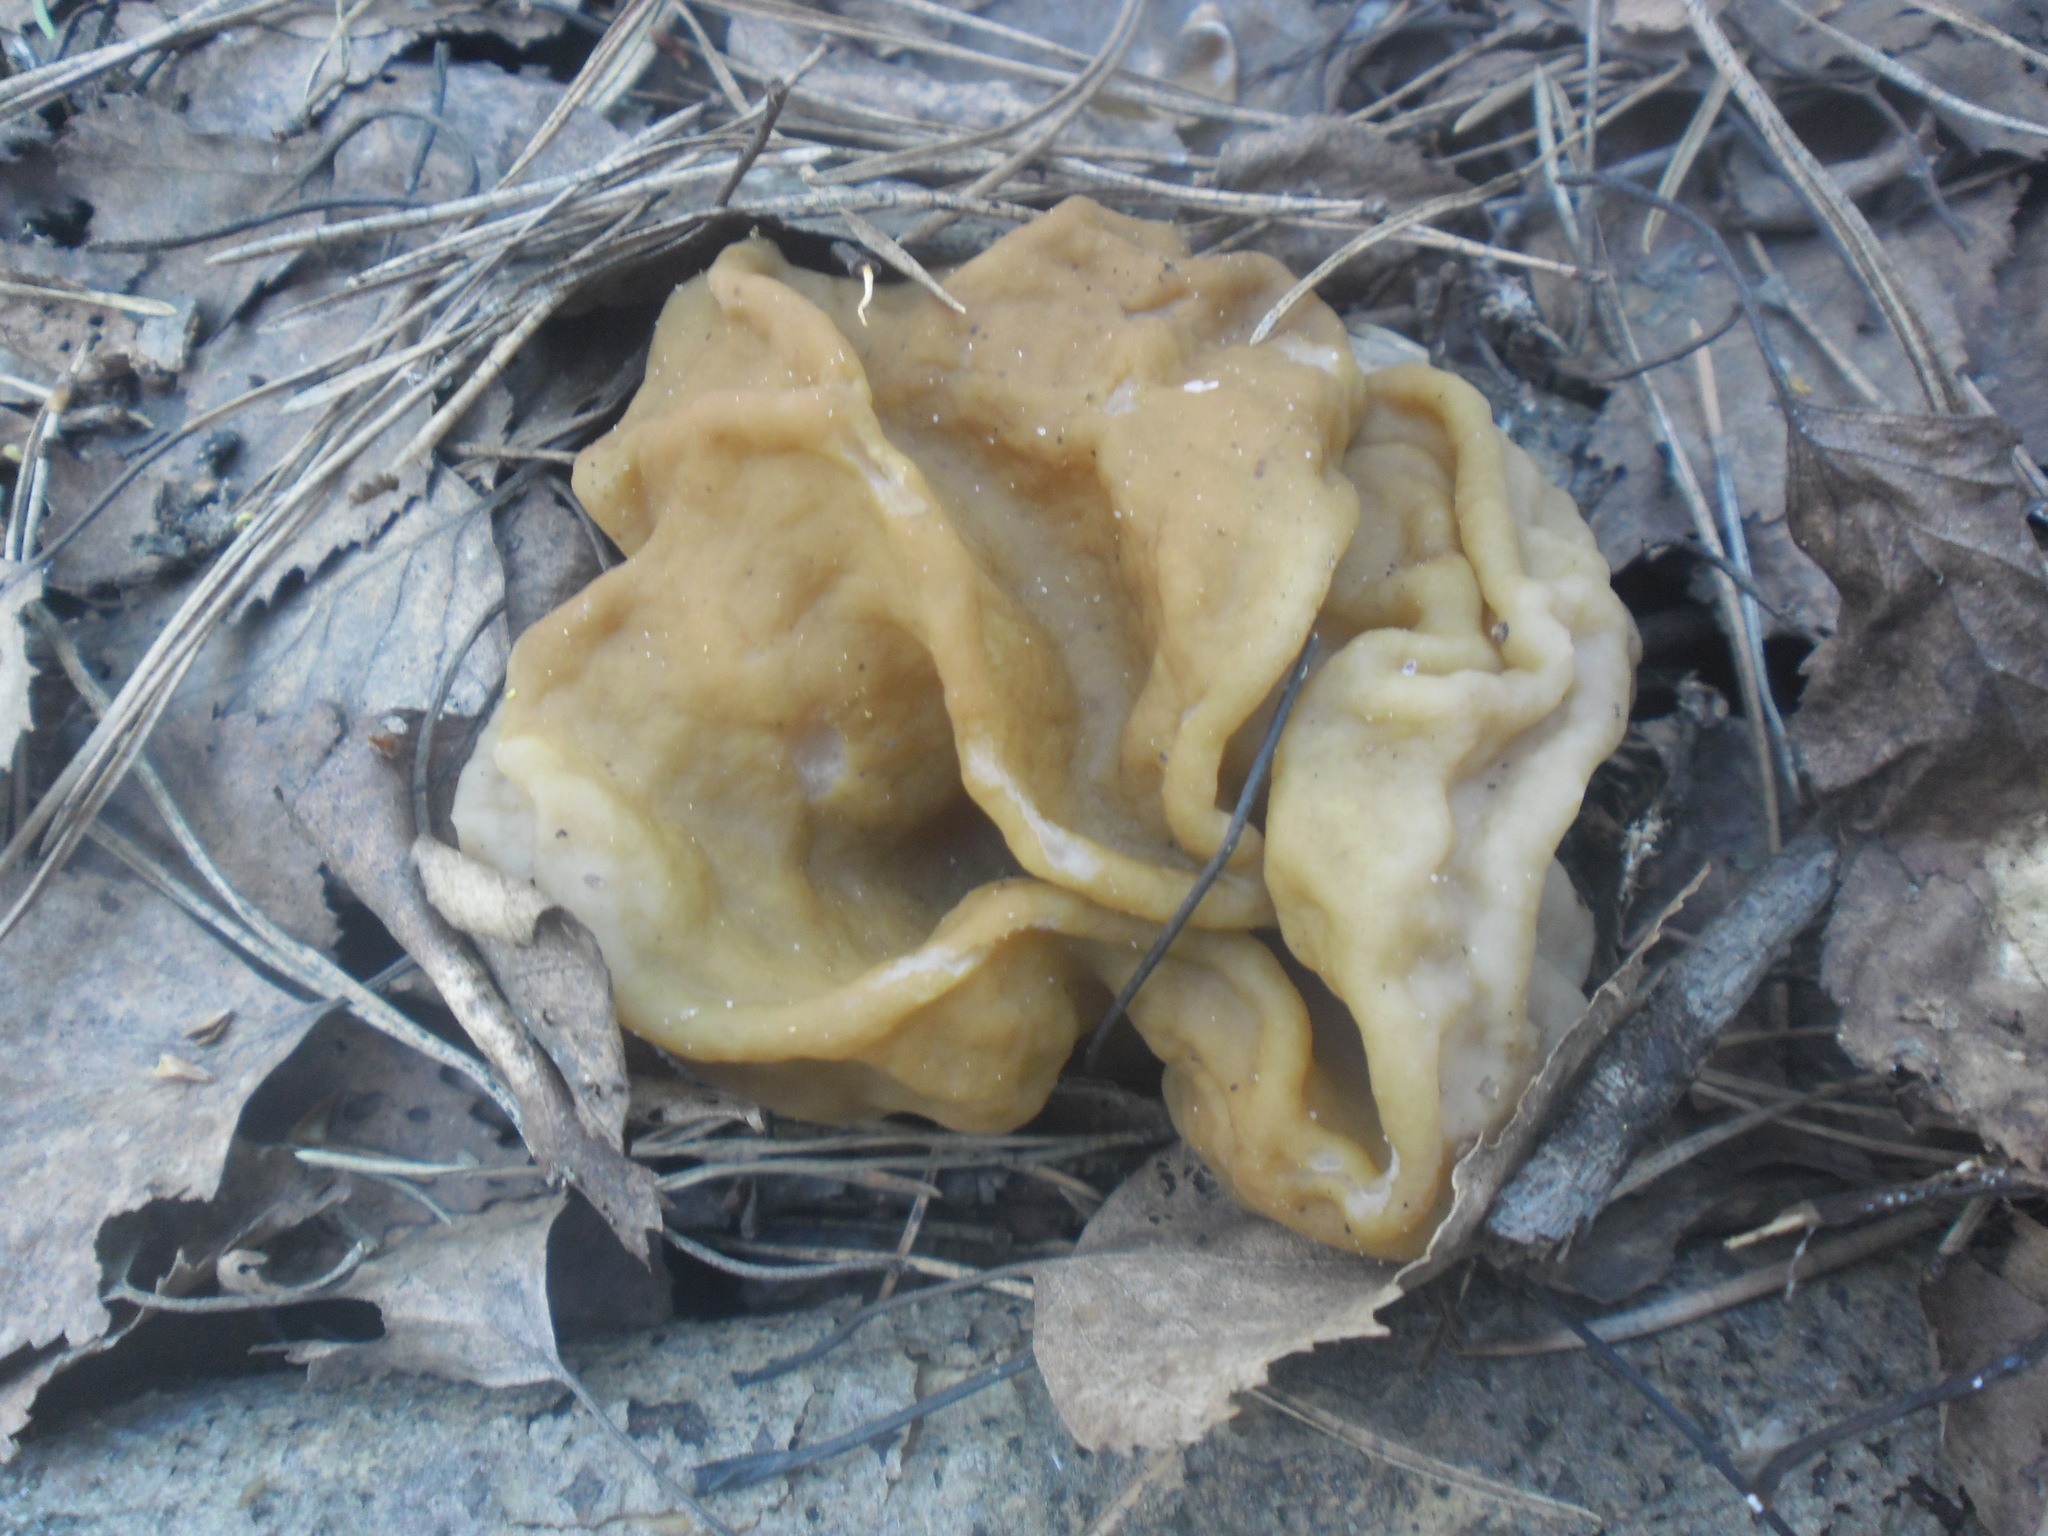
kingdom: Fungi
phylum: Ascomycota
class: Pezizomycetes
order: Pezizales
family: Discinaceae
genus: Gyromitra
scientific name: Gyromitra gigas
